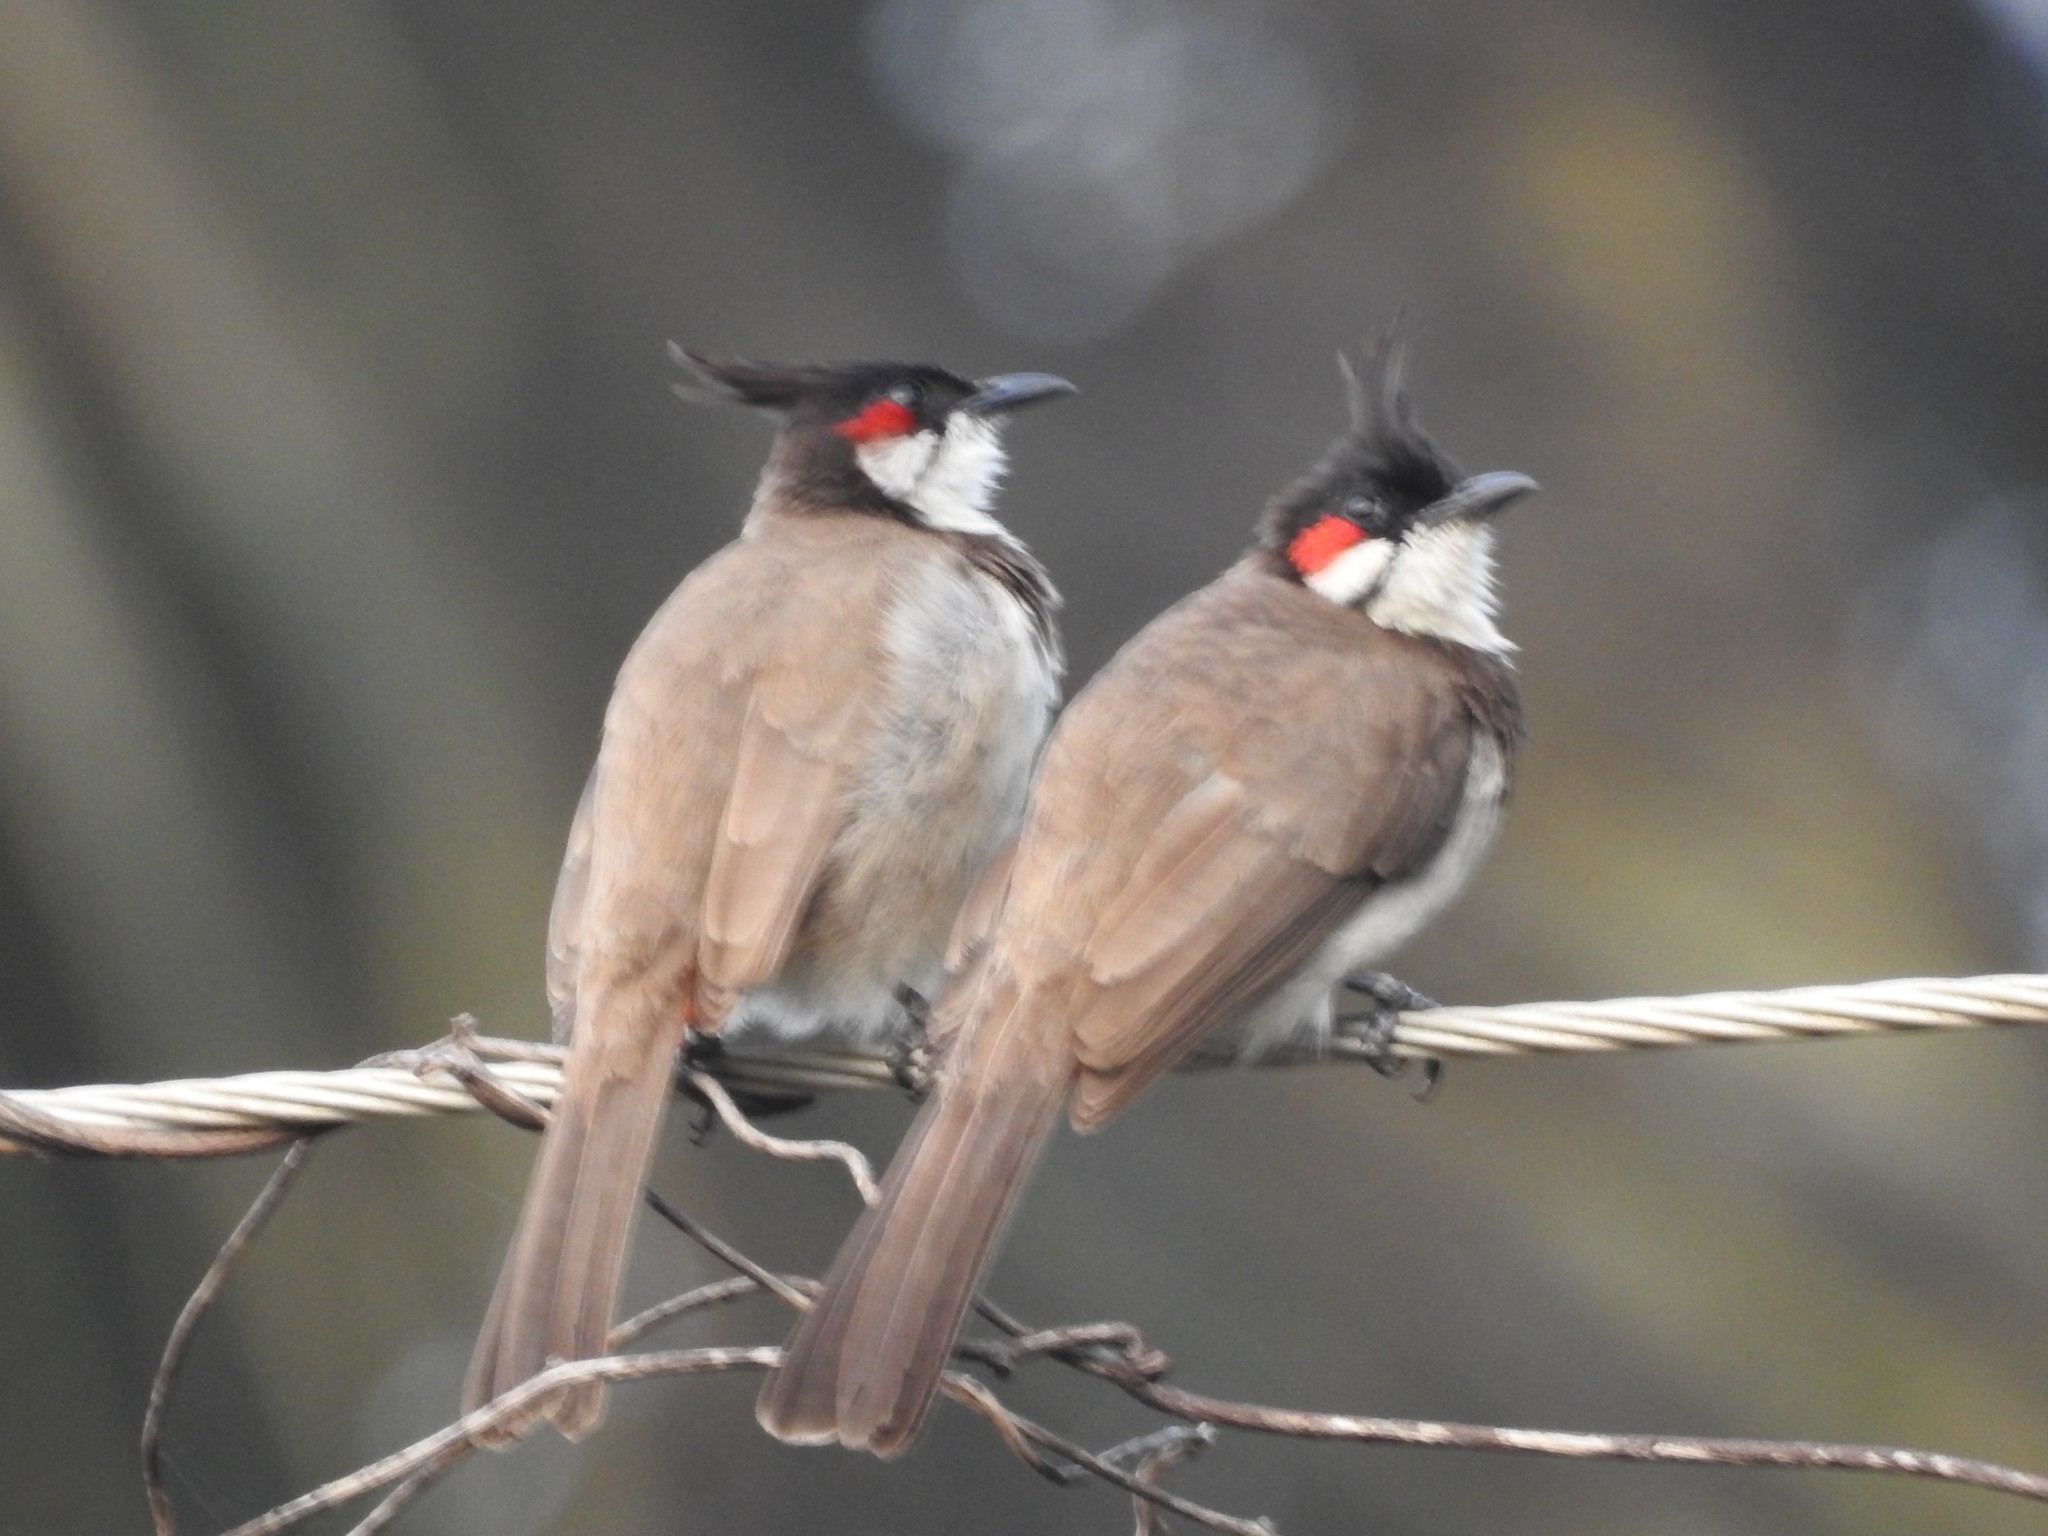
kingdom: Animalia
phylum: Chordata
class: Aves
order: Passeriformes
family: Pycnonotidae
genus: Pycnonotus
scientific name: Pycnonotus jocosus
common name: Red-whiskered bulbul
